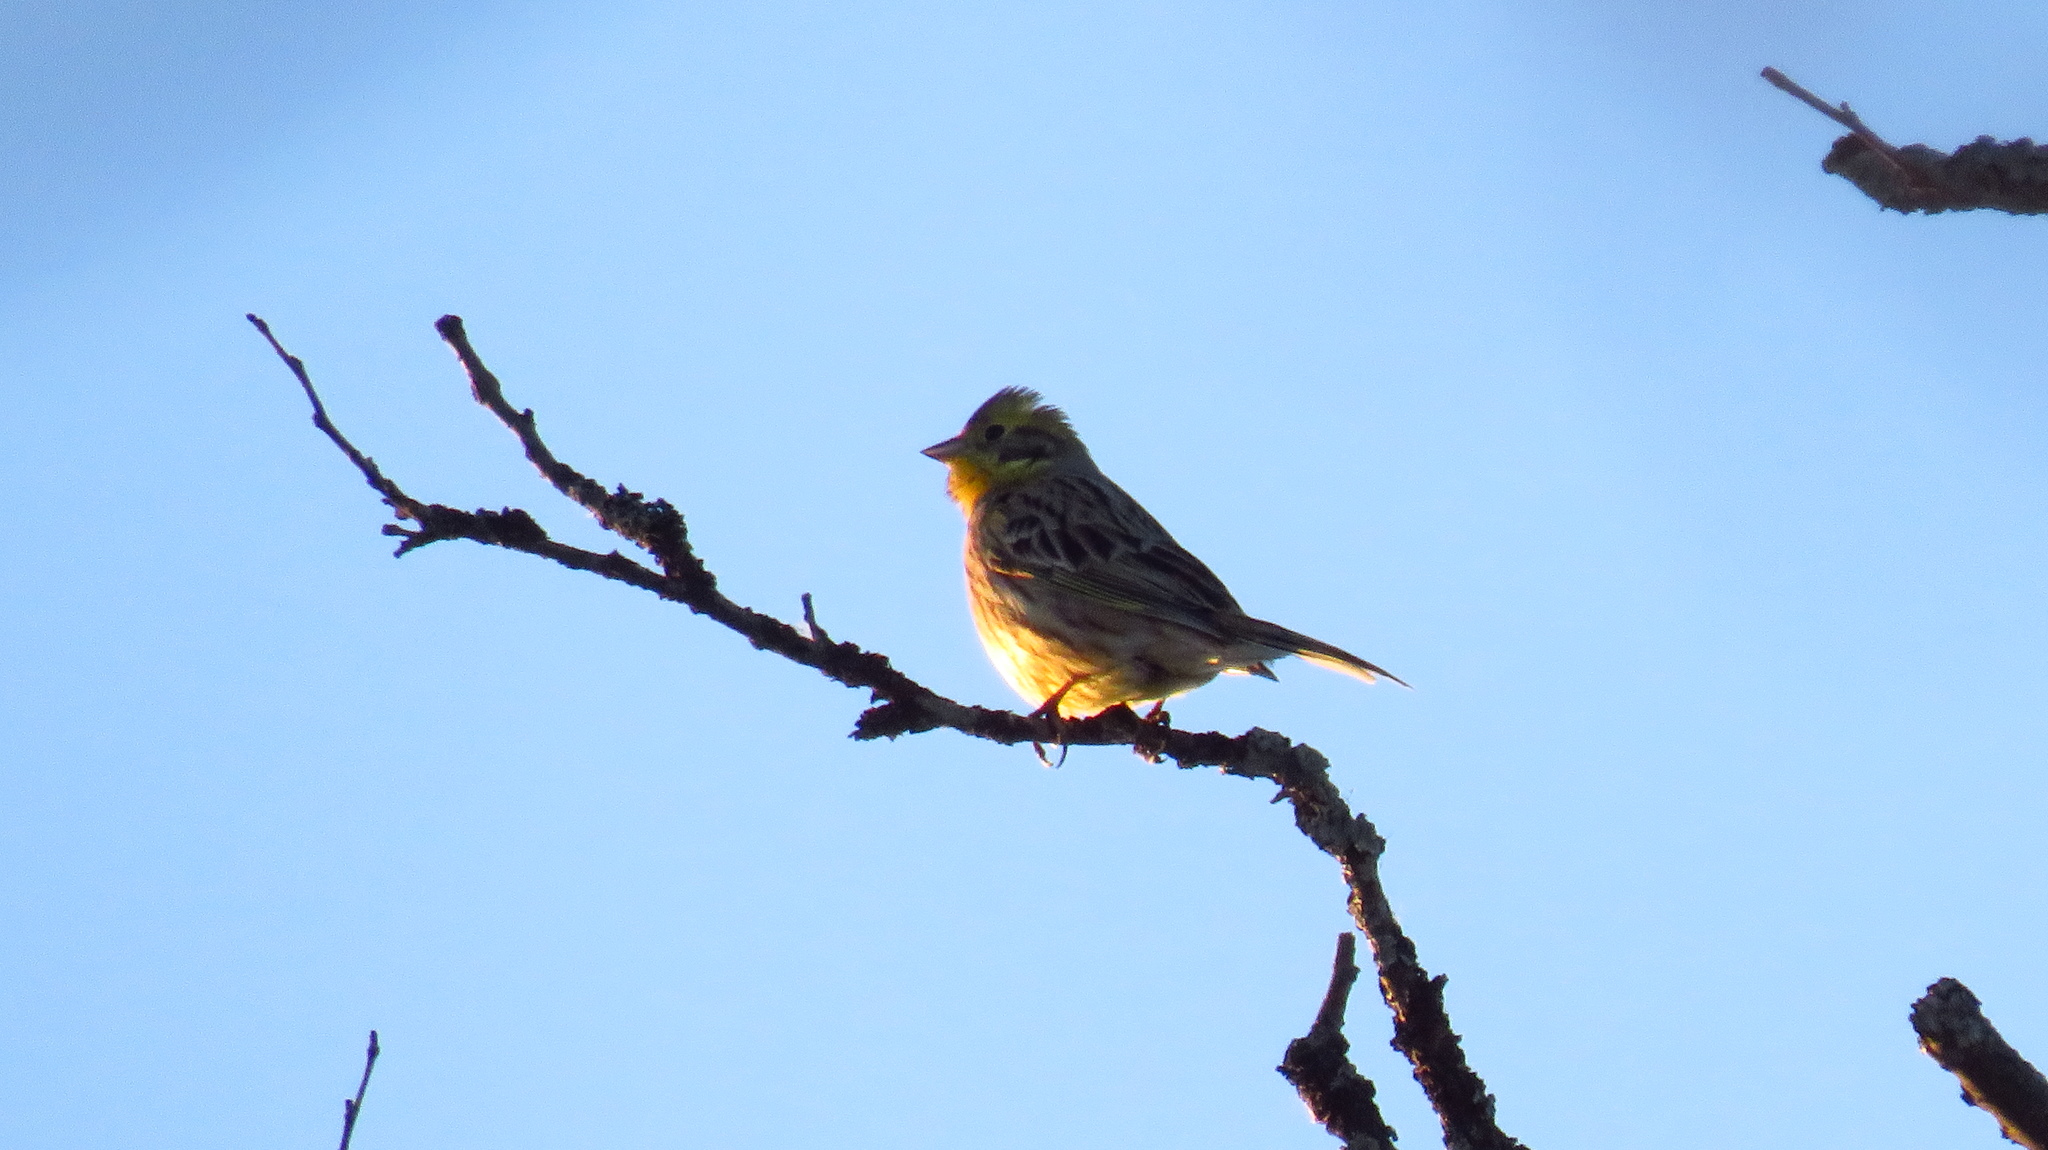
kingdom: Animalia
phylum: Chordata
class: Aves
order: Passeriformes
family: Emberizidae
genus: Emberiza
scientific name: Emberiza citrinella
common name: Yellowhammer
